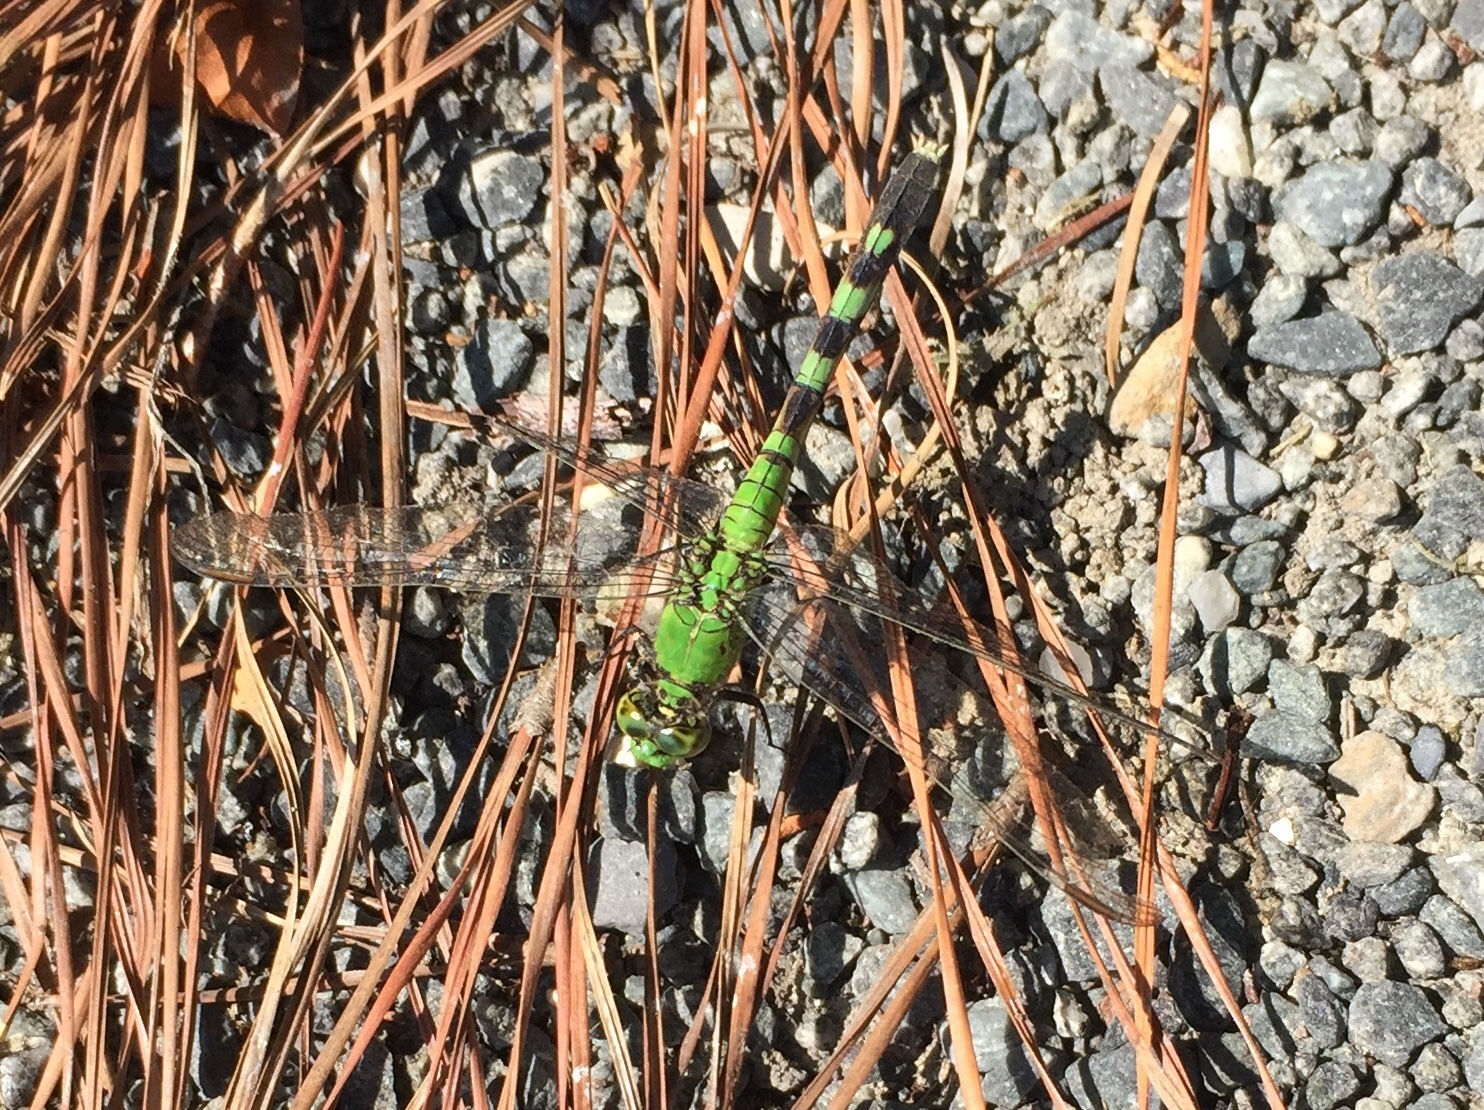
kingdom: Animalia
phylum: Arthropoda
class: Insecta
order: Odonata
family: Libellulidae
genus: Erythemis
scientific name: Erythemis simplicicollis
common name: Eastern pondhawk
